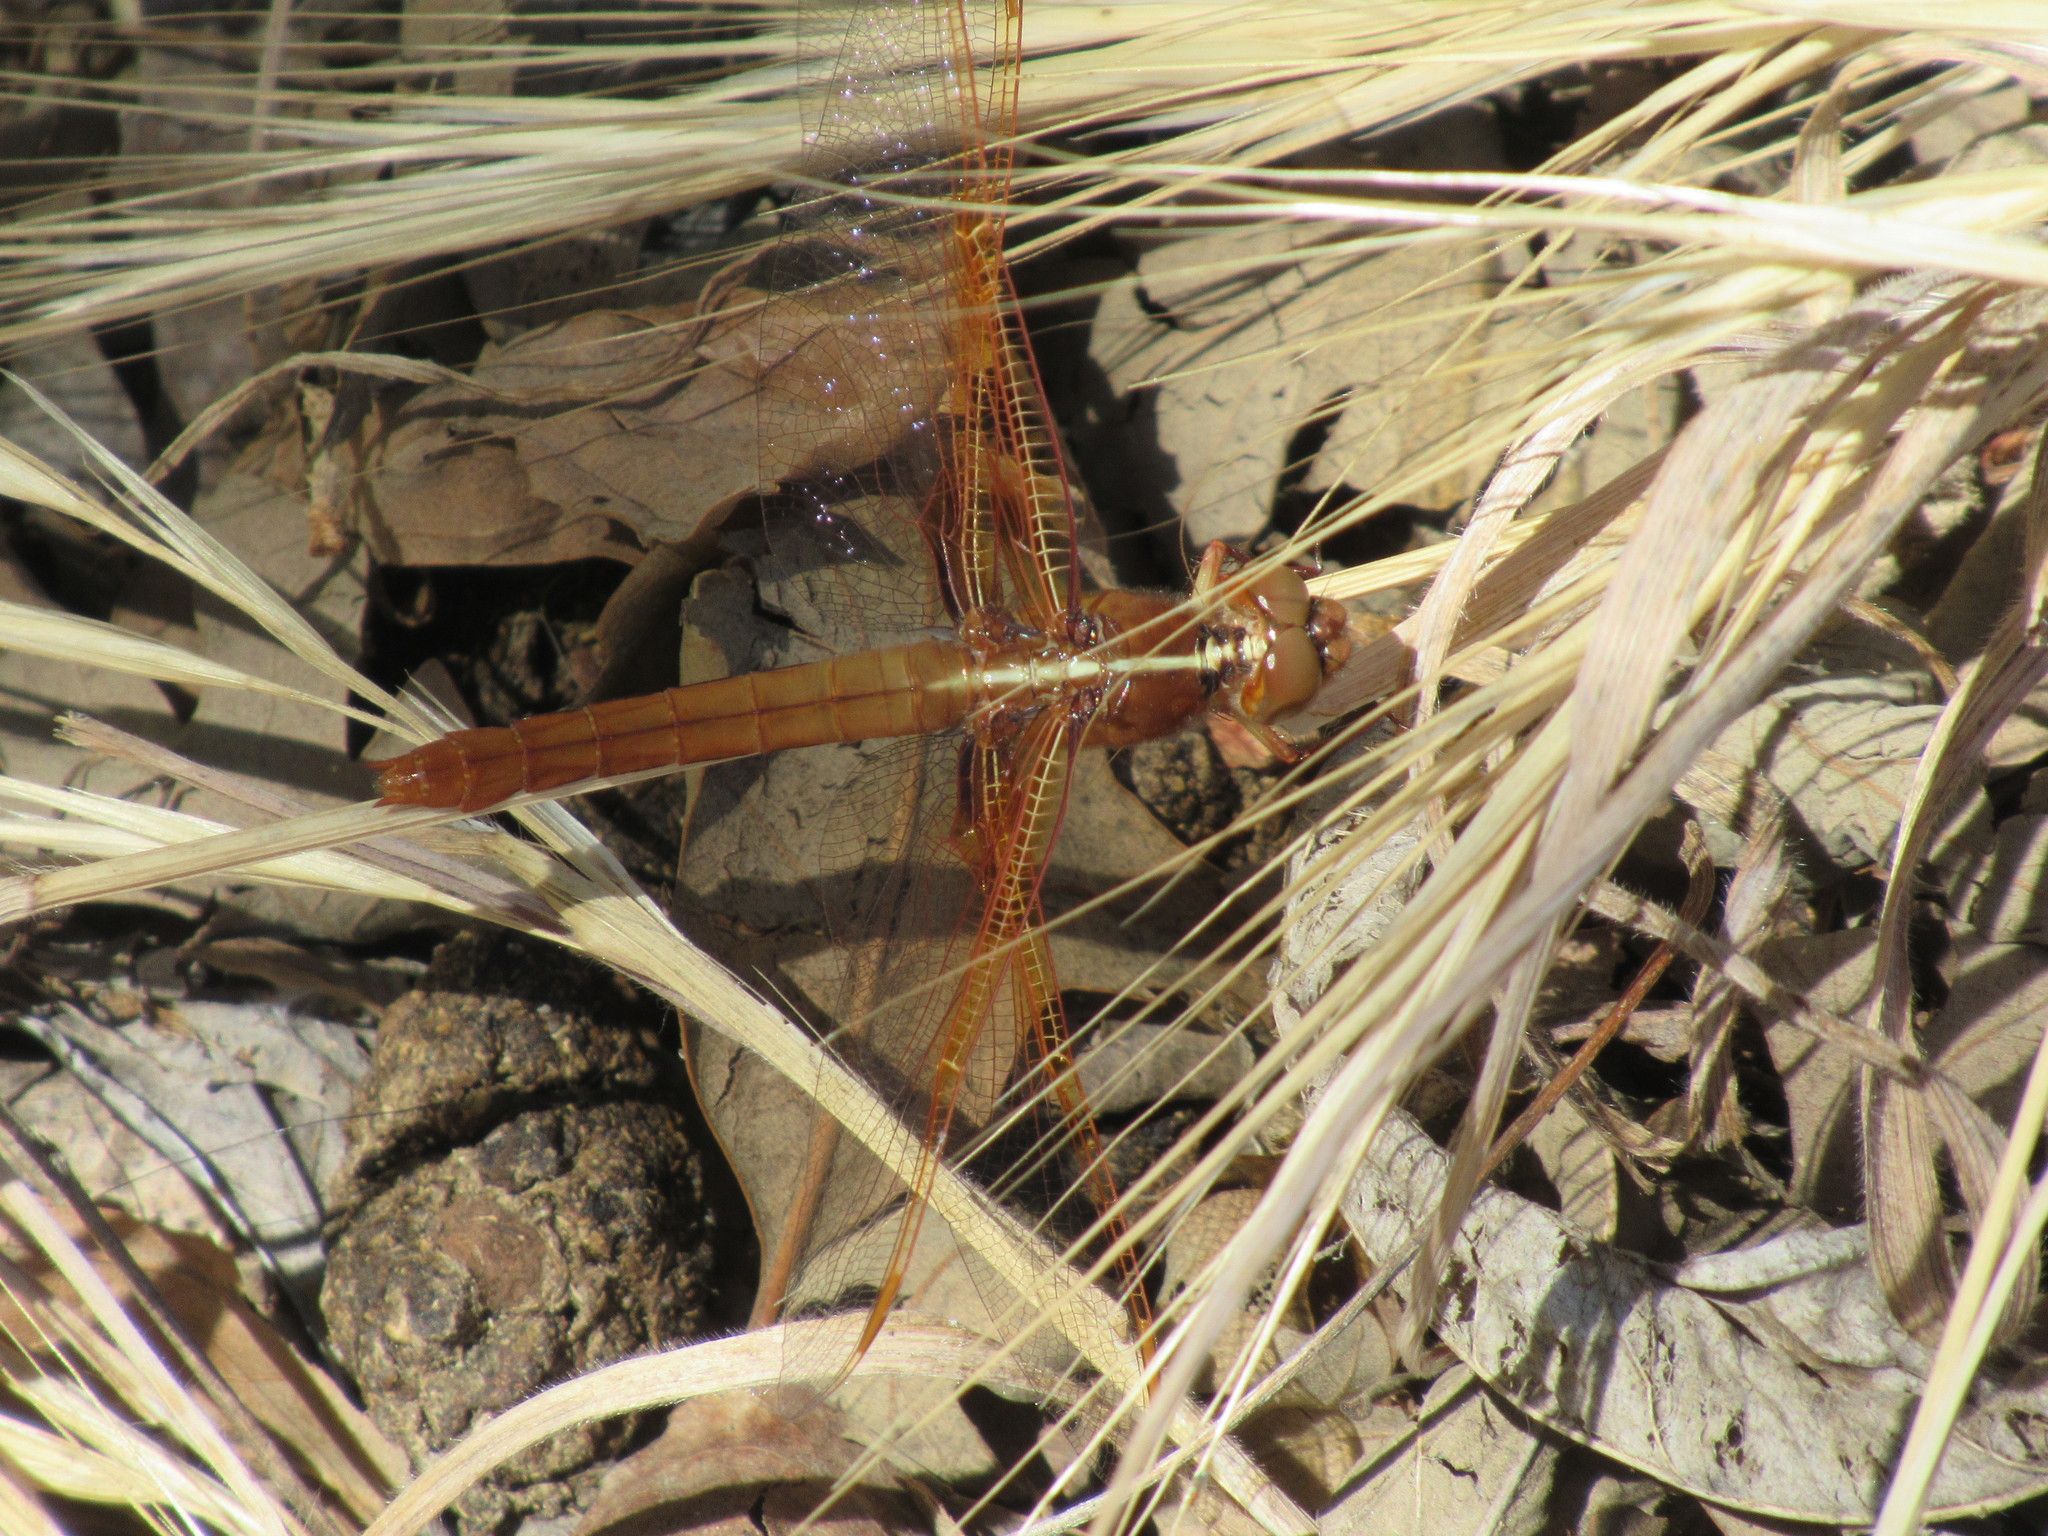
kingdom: Animalia
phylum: Arthropoda
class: Insecta
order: Odonata
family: Libellulidae
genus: Libellula
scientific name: Libellula saturata
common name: Flame skimmer
